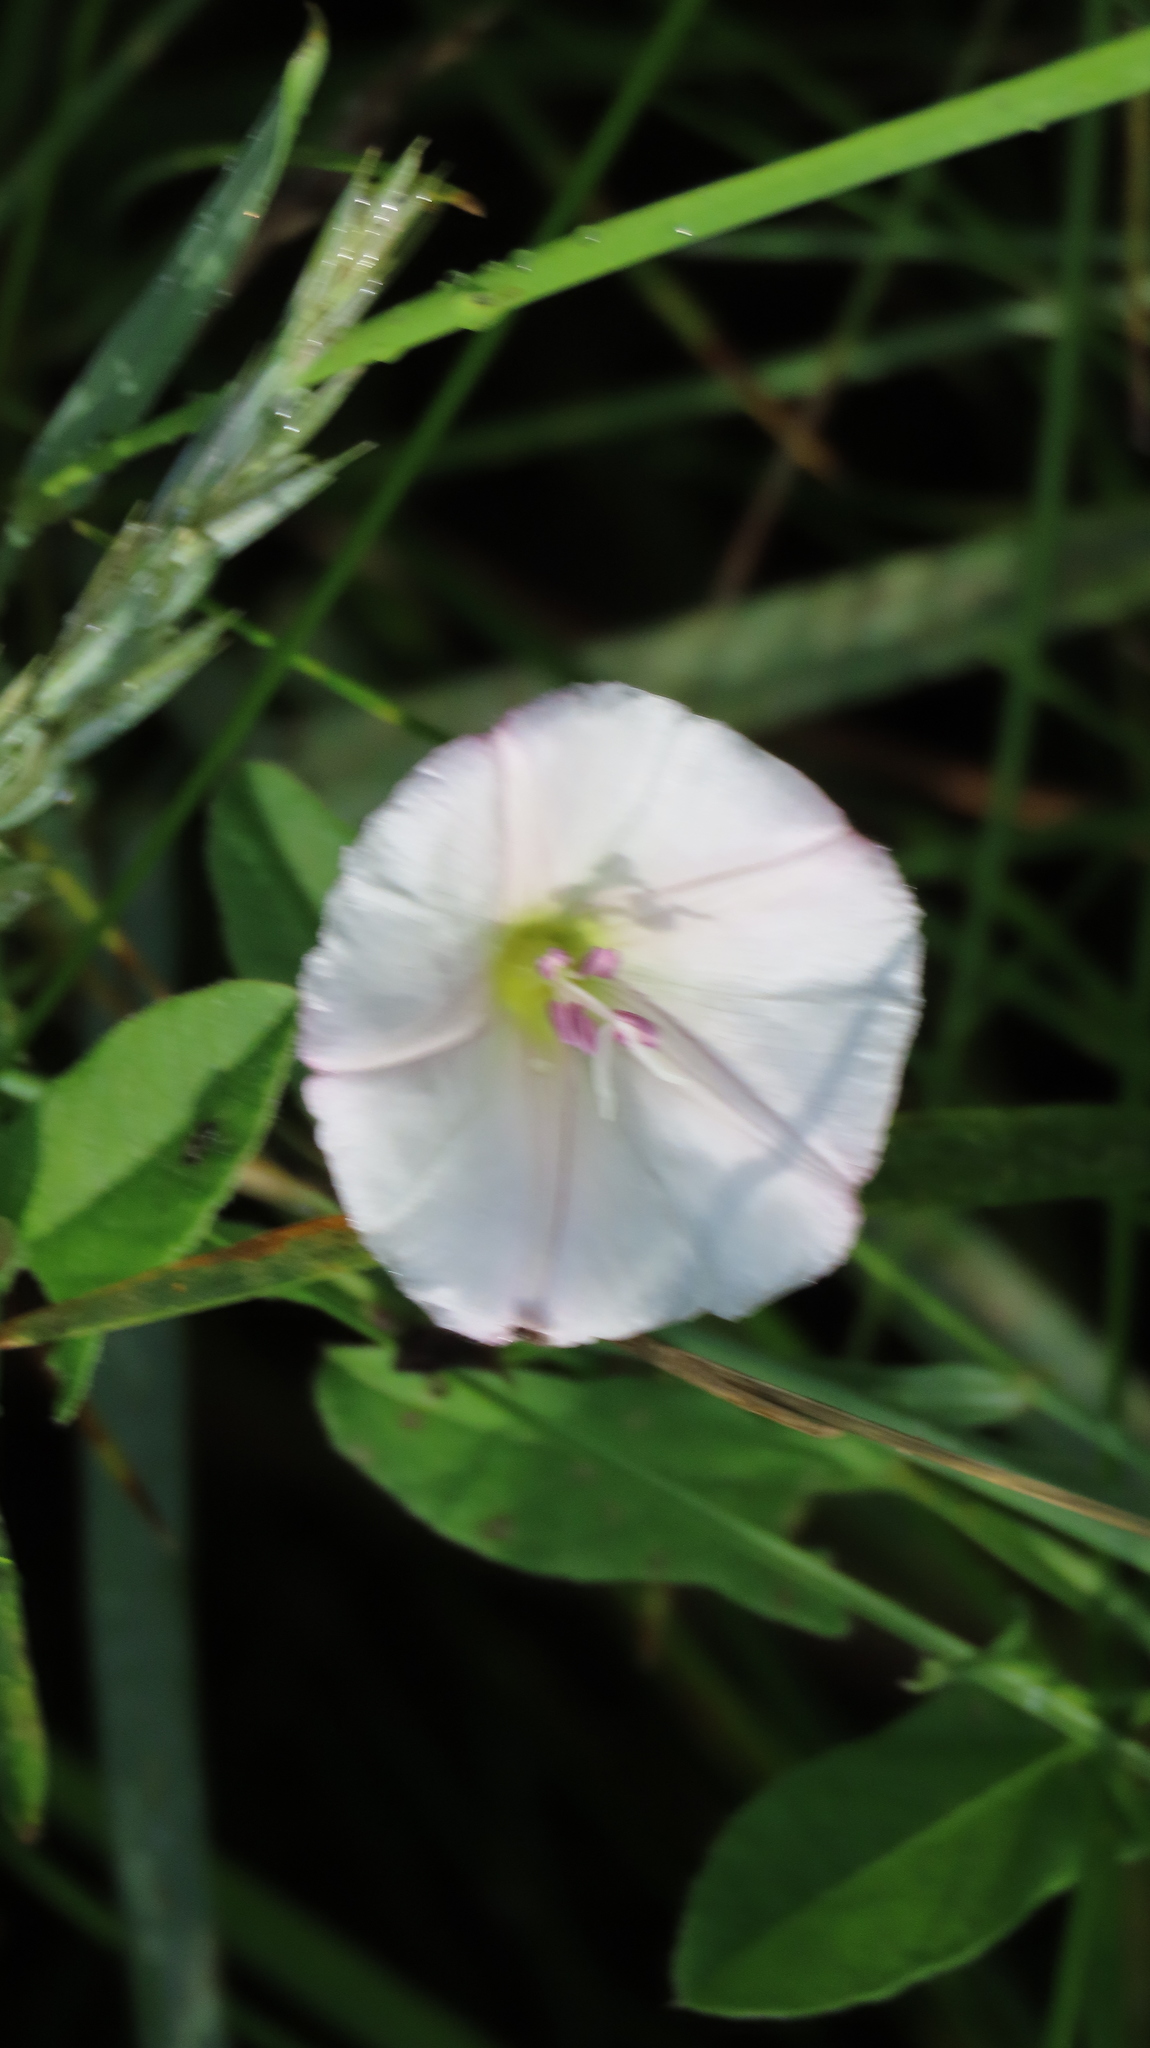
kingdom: Plantae
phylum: Tracheophyta
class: Magnoliopsida
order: Solanales
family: Convolvulaceae
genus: Convolvulus
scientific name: Convolvulus arvensis
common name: Field bindweed
